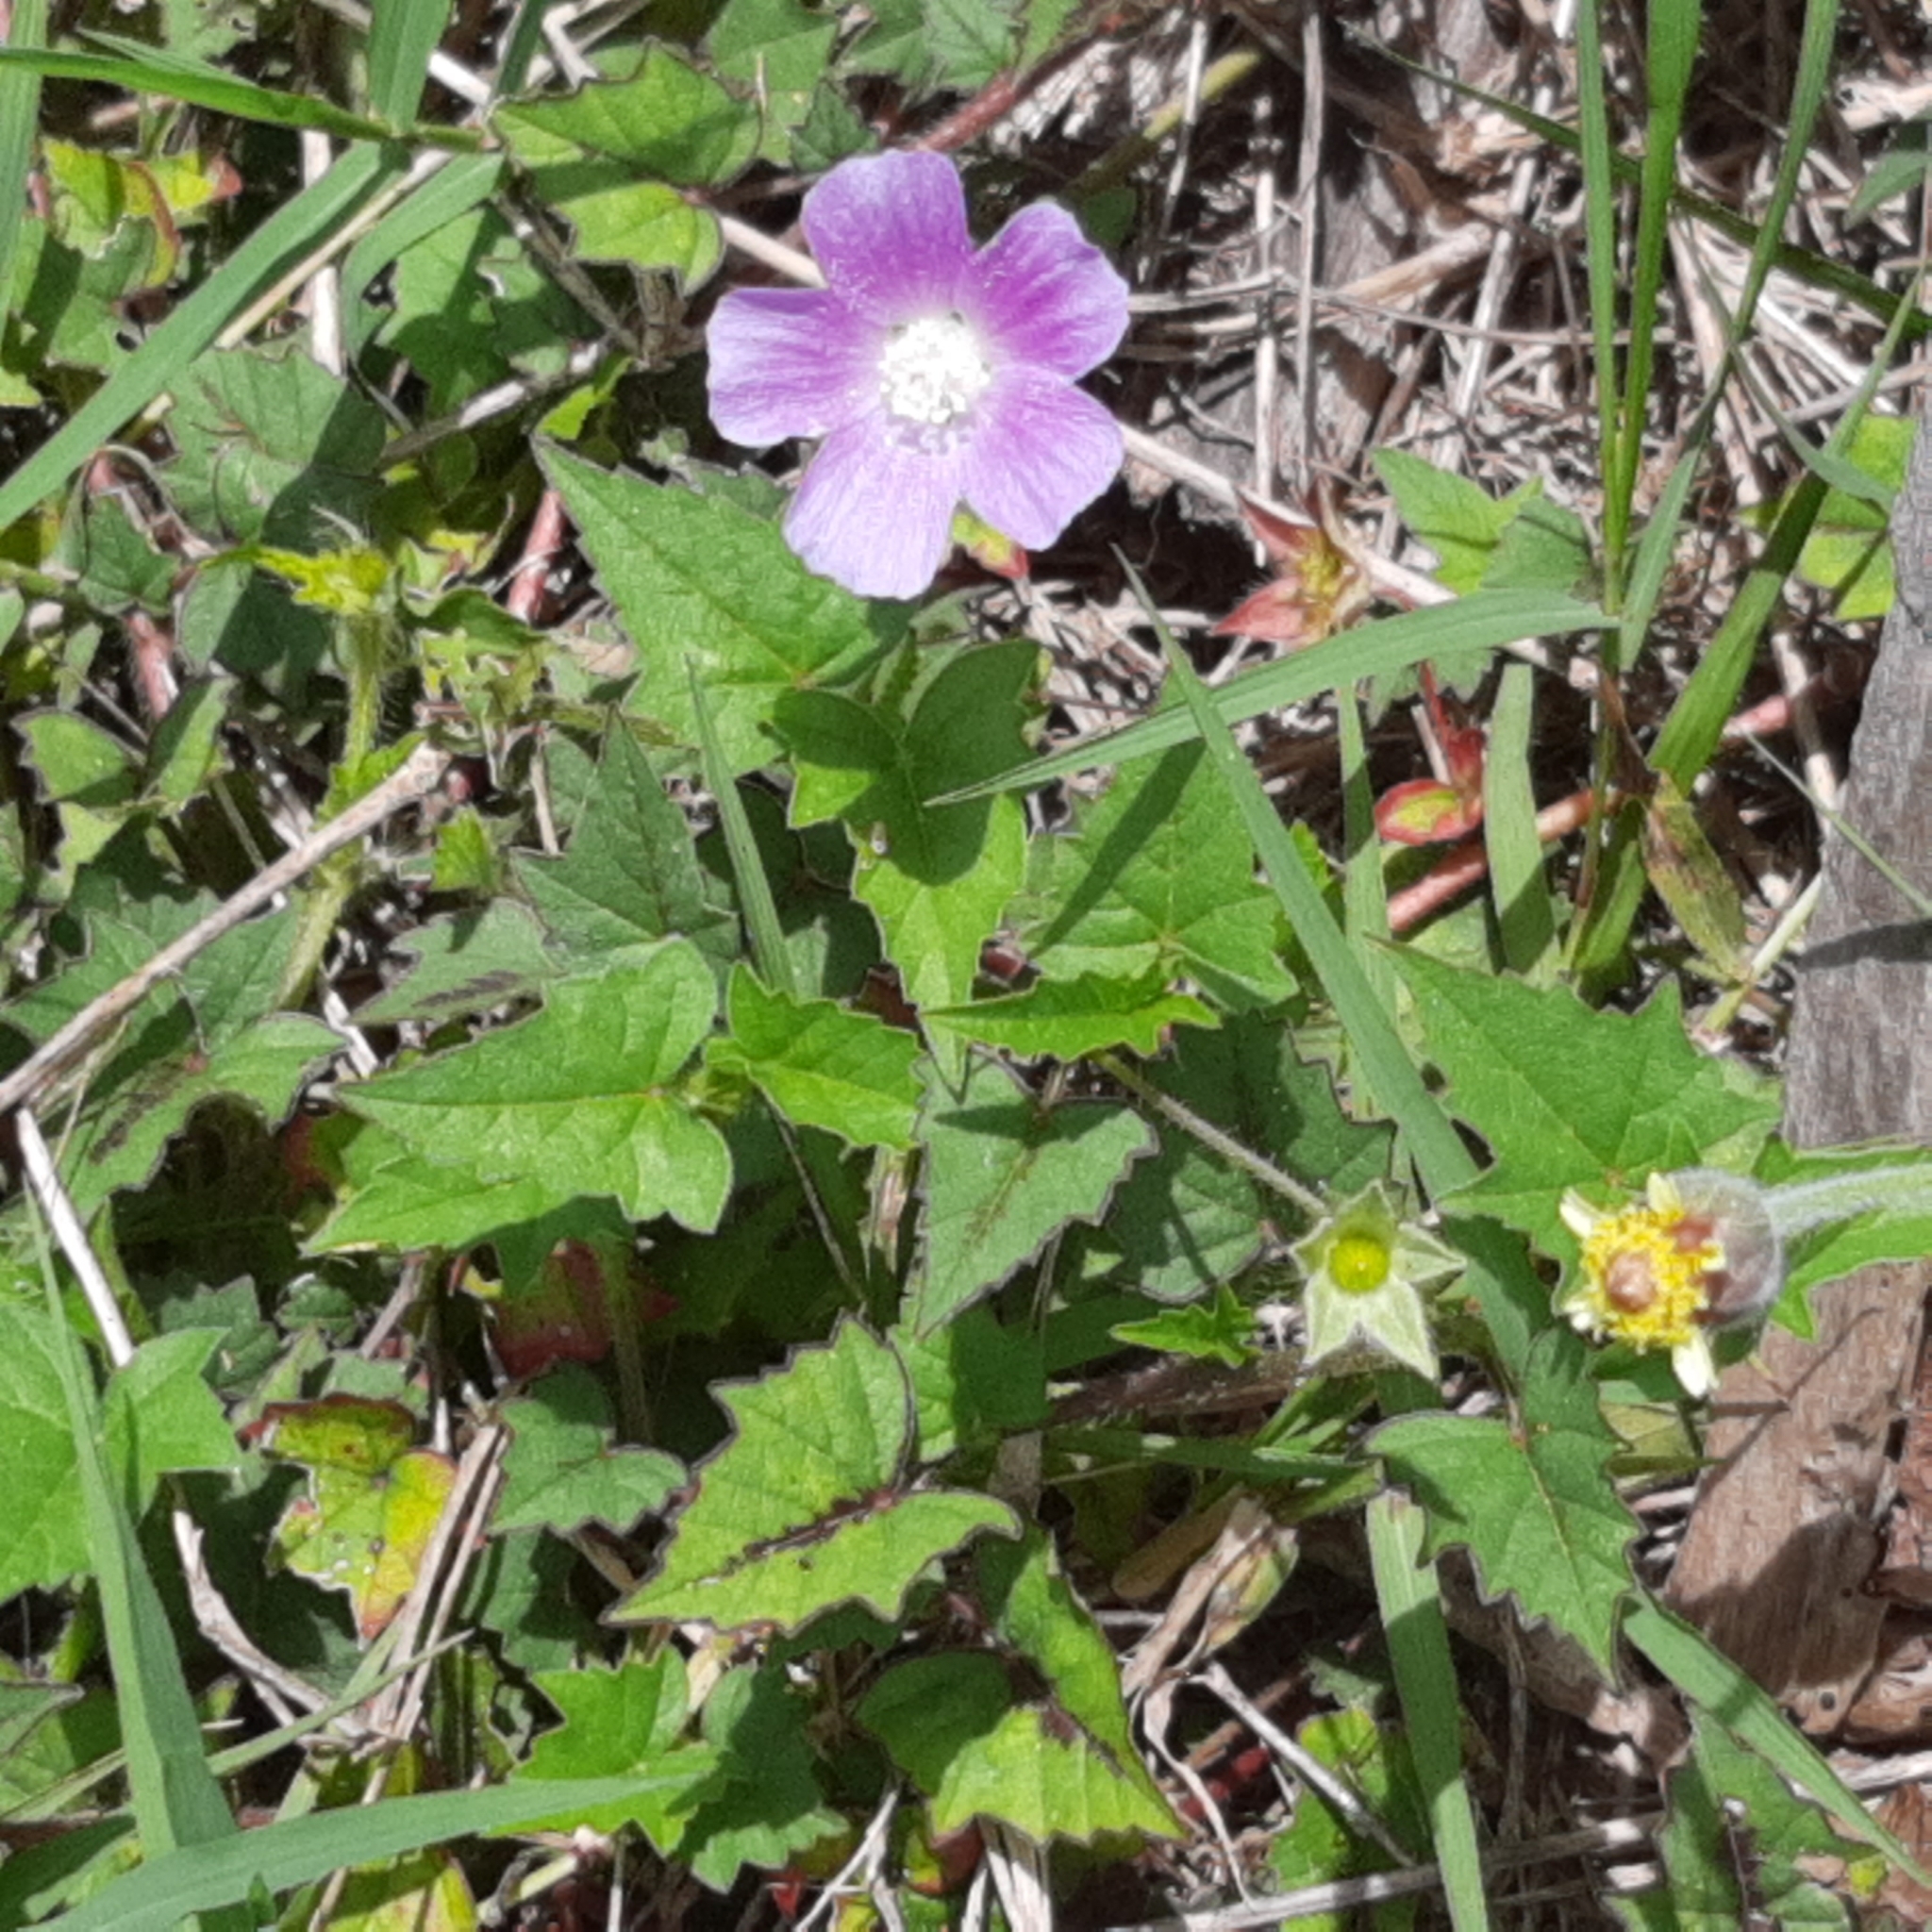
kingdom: Plantae
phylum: Tracheophyta
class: Magnoliopsida
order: Malvales
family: Malvaceae
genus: Anoda
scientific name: Anoda cristata
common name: Spurred anoda
